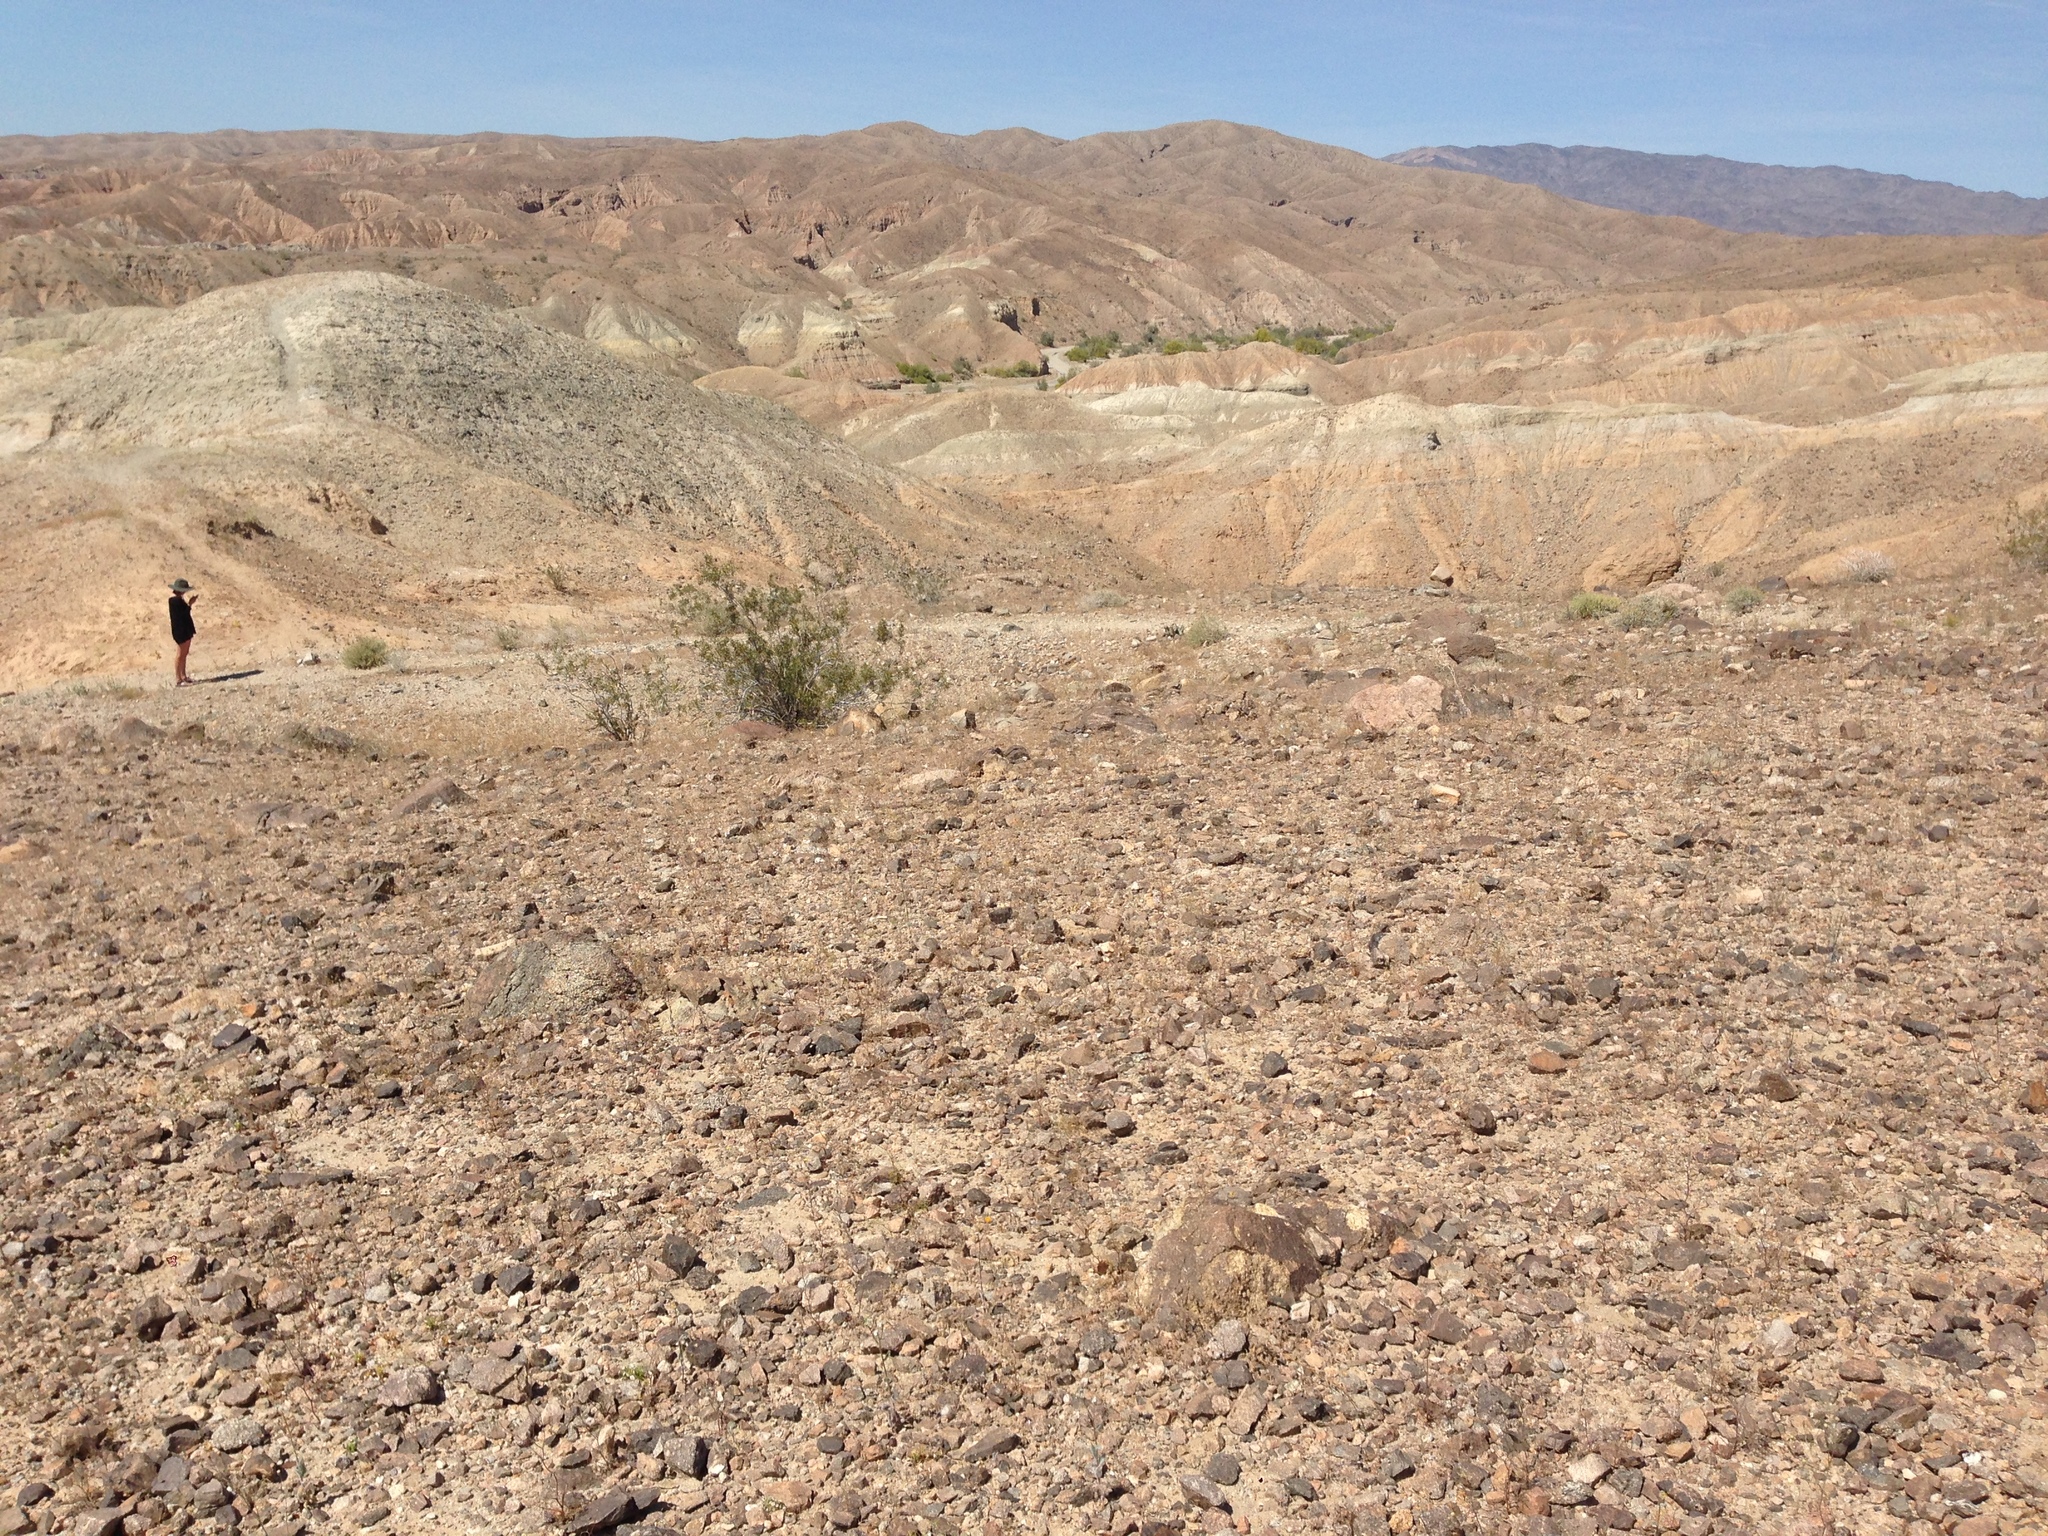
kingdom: Plantae
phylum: Tracheophyta
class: Magnoliopsida
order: Zygophyllales
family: Zygophyllaceae
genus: Larrea
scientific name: Larrea tridentata
